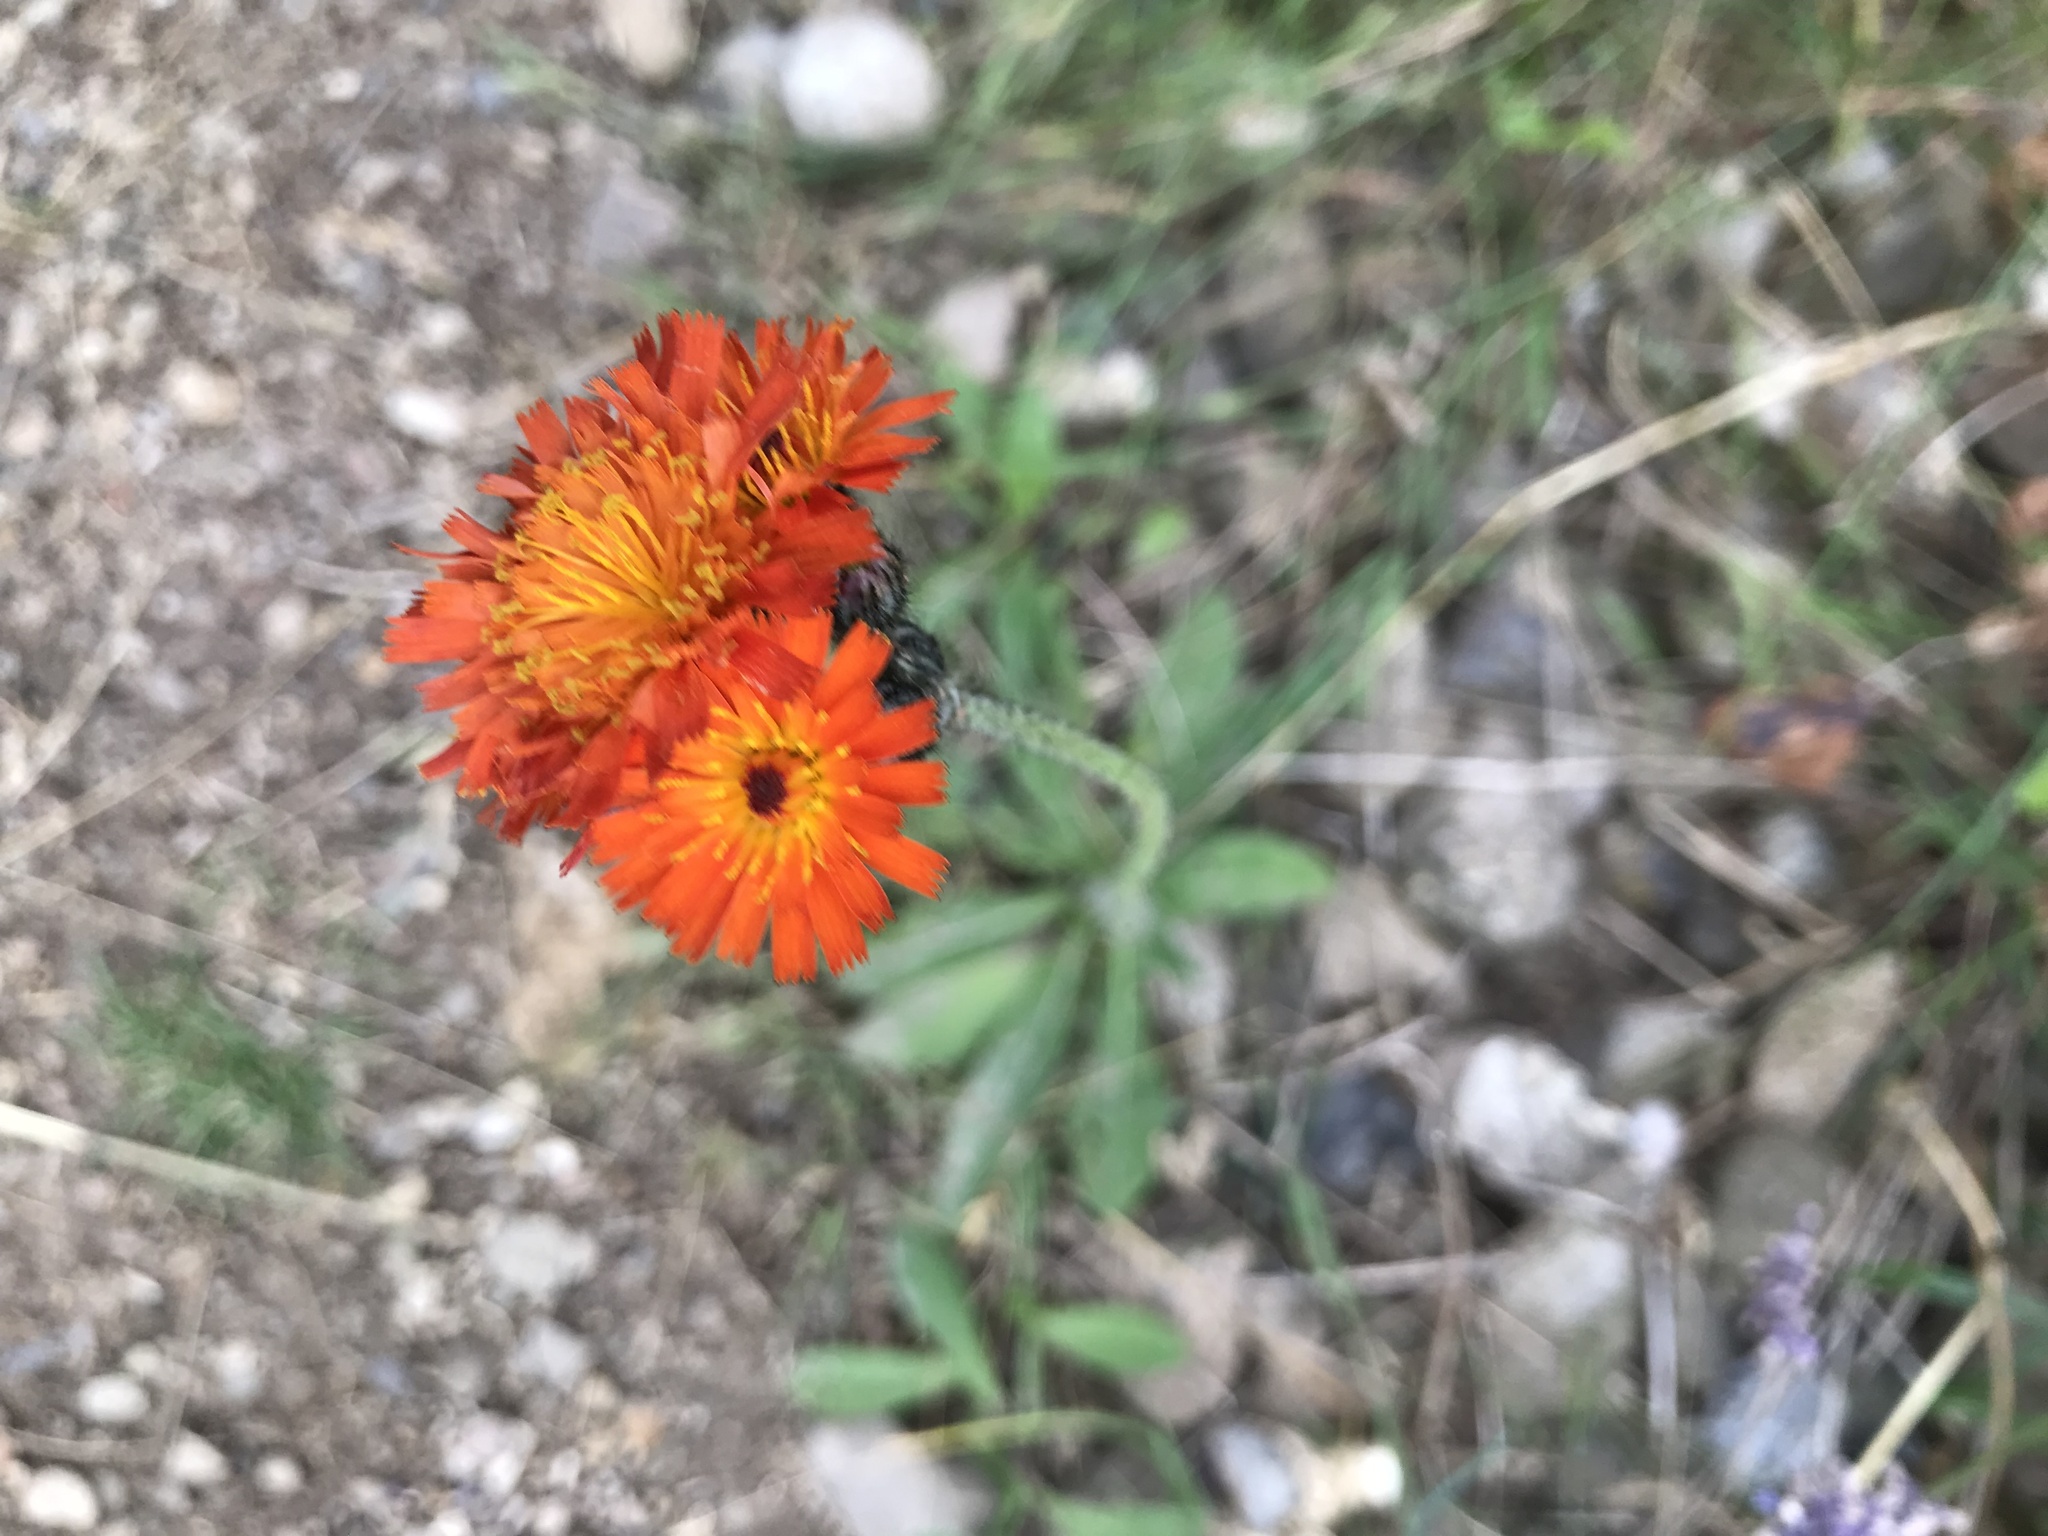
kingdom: Plantae
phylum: Tracheophyta
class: Magnoliopsida
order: Asterales
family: Asteraceae
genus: Pilosella
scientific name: Pilosella aurantiaca
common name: Fox-and-cubs
